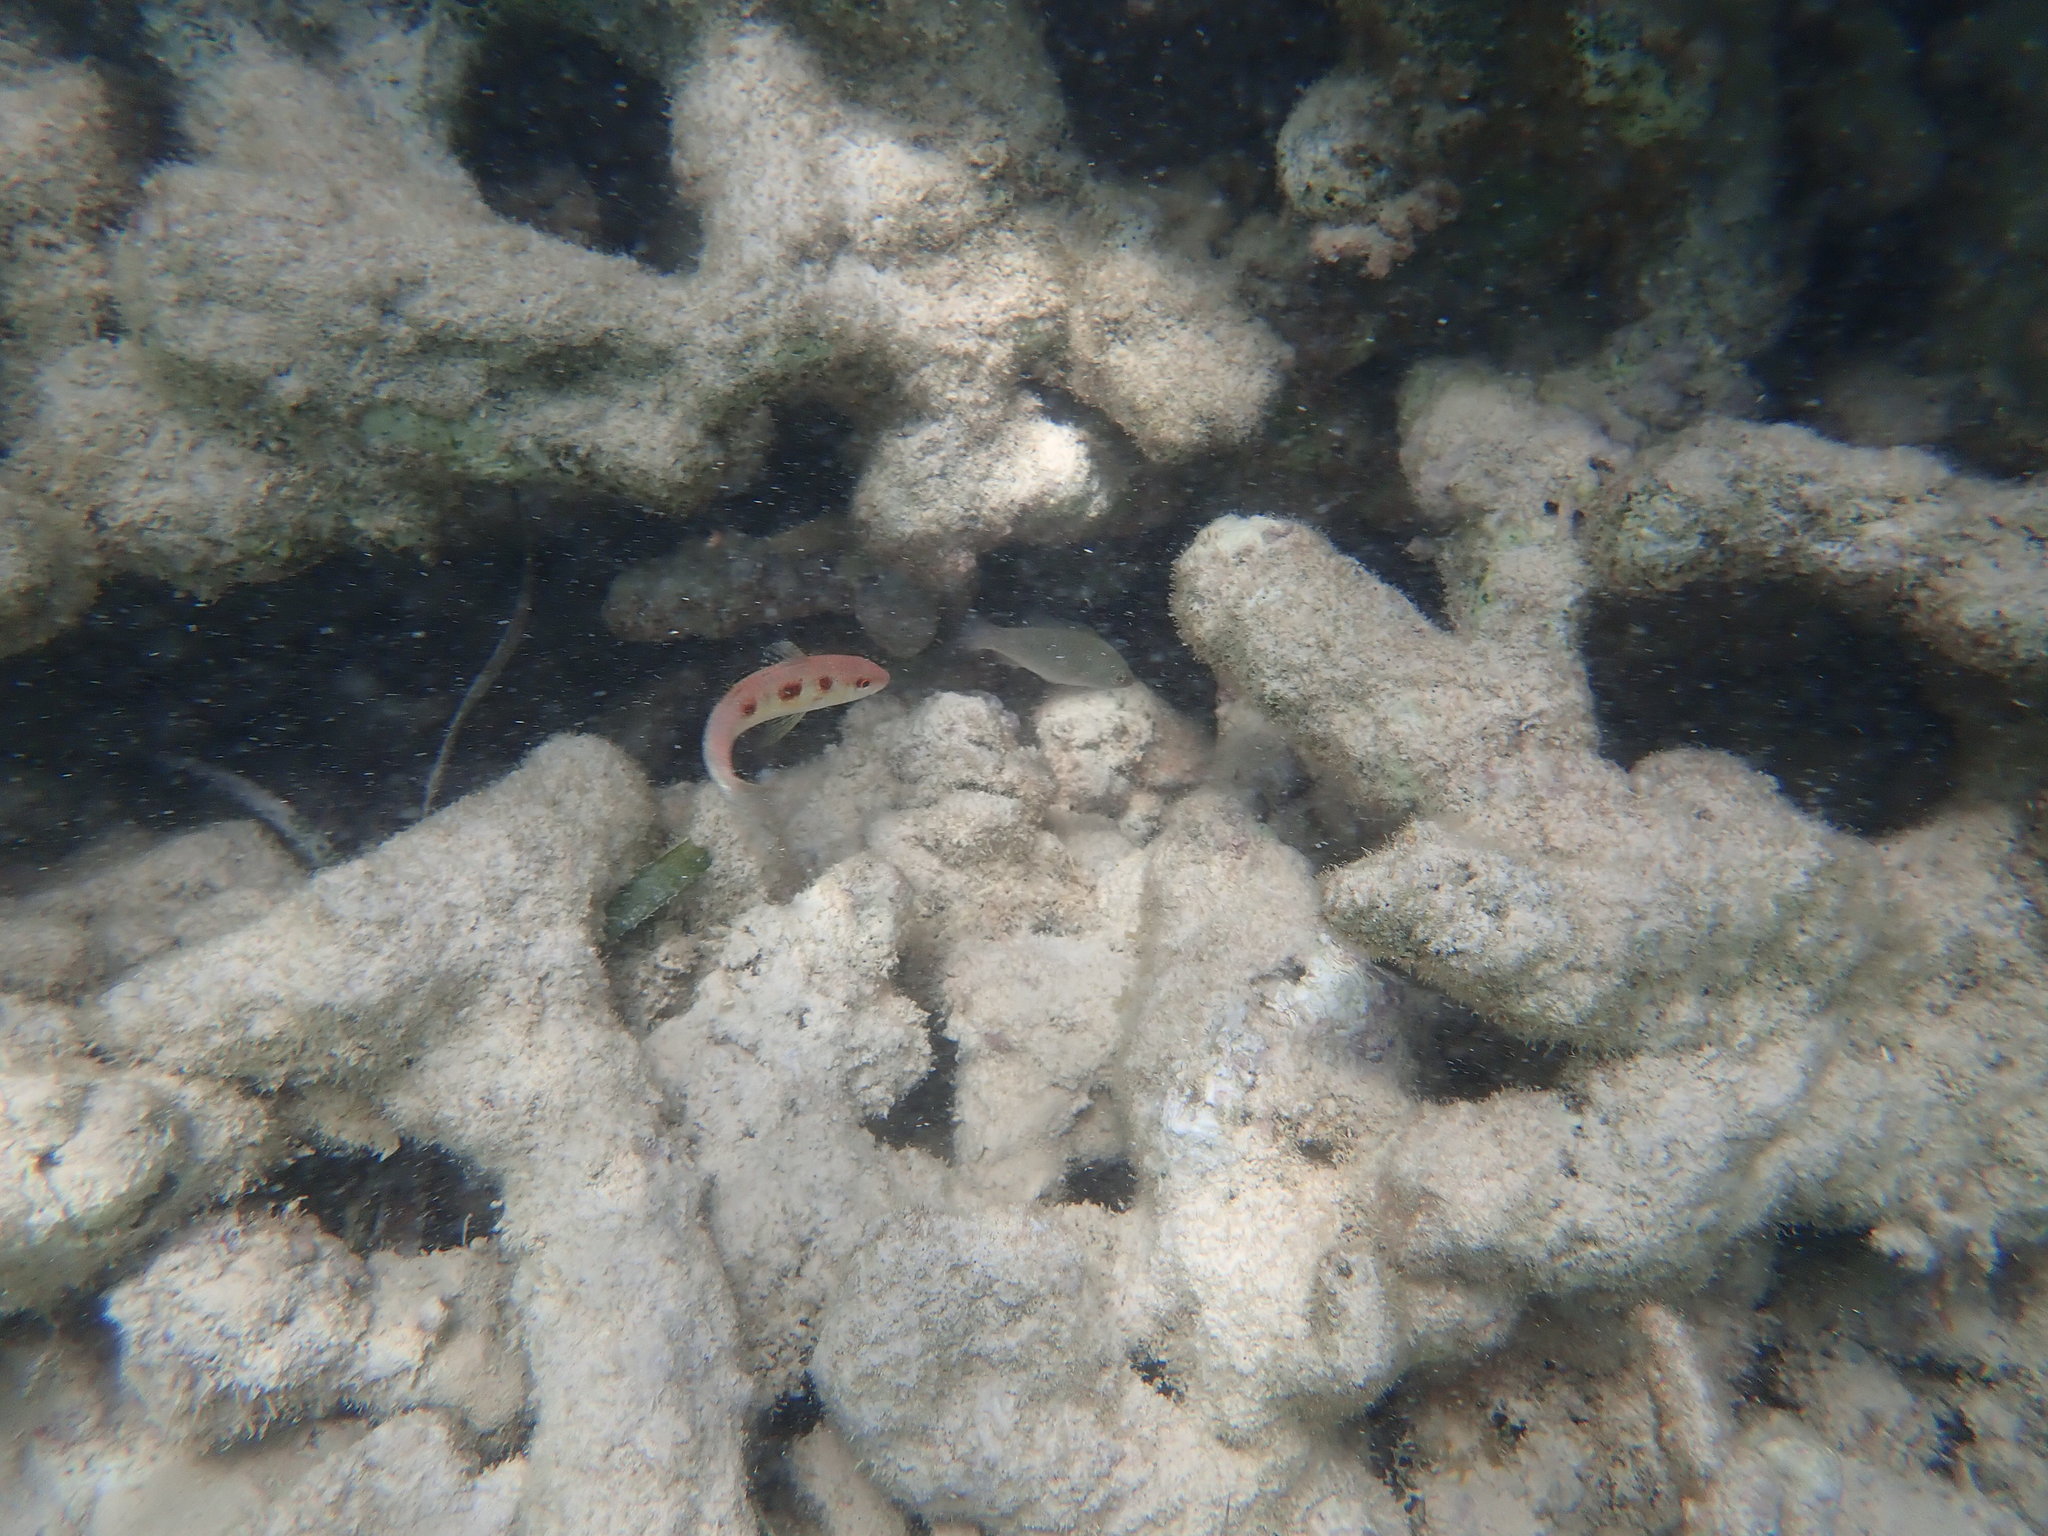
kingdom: Animalia
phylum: Chordata
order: Perciformes
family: Mullidae
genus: Pseudupeneus
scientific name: Pseudupeneus maculatus
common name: Spotted goatfish
